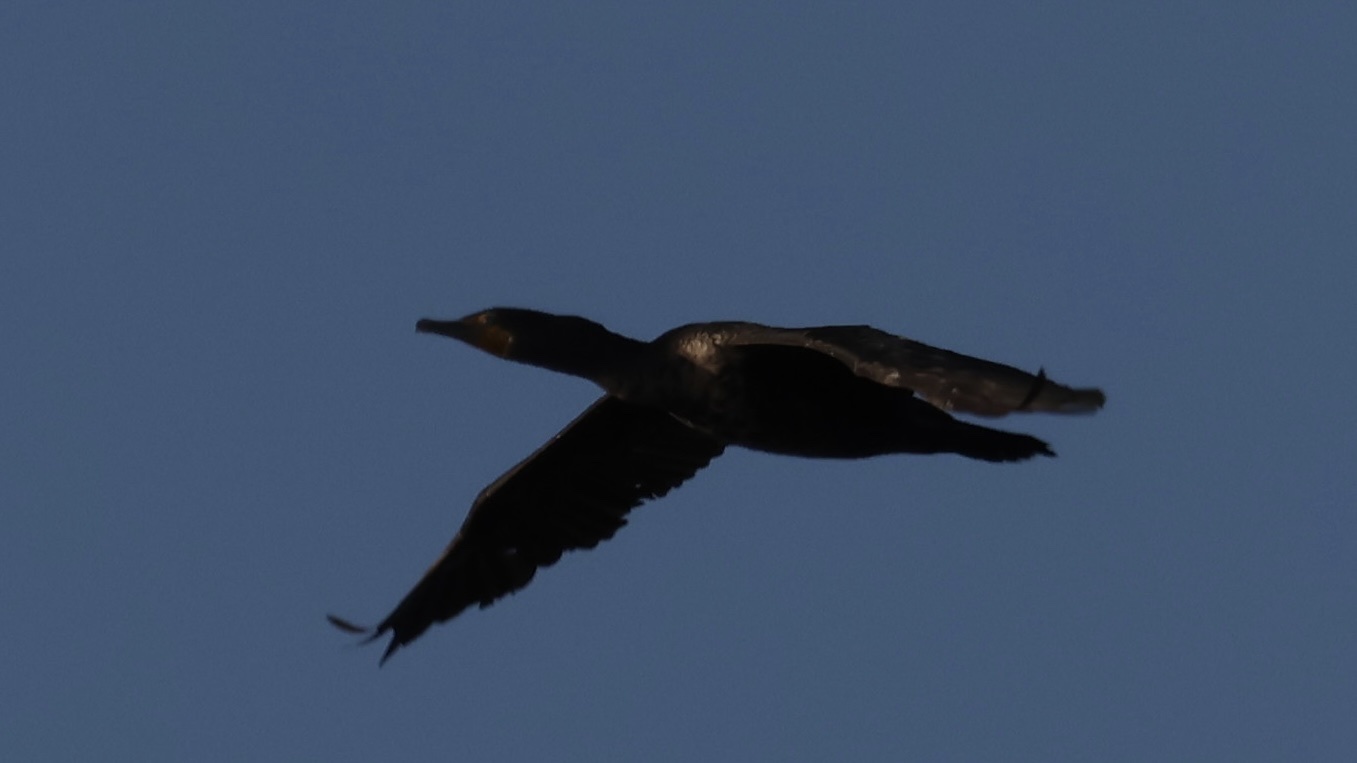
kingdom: Animalia
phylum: Chordata
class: Aves
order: Suliformes
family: Phalacrocoracidae
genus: Phalacrocorax
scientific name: Phalacrocorax auritus
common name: Double-crested cormorant
